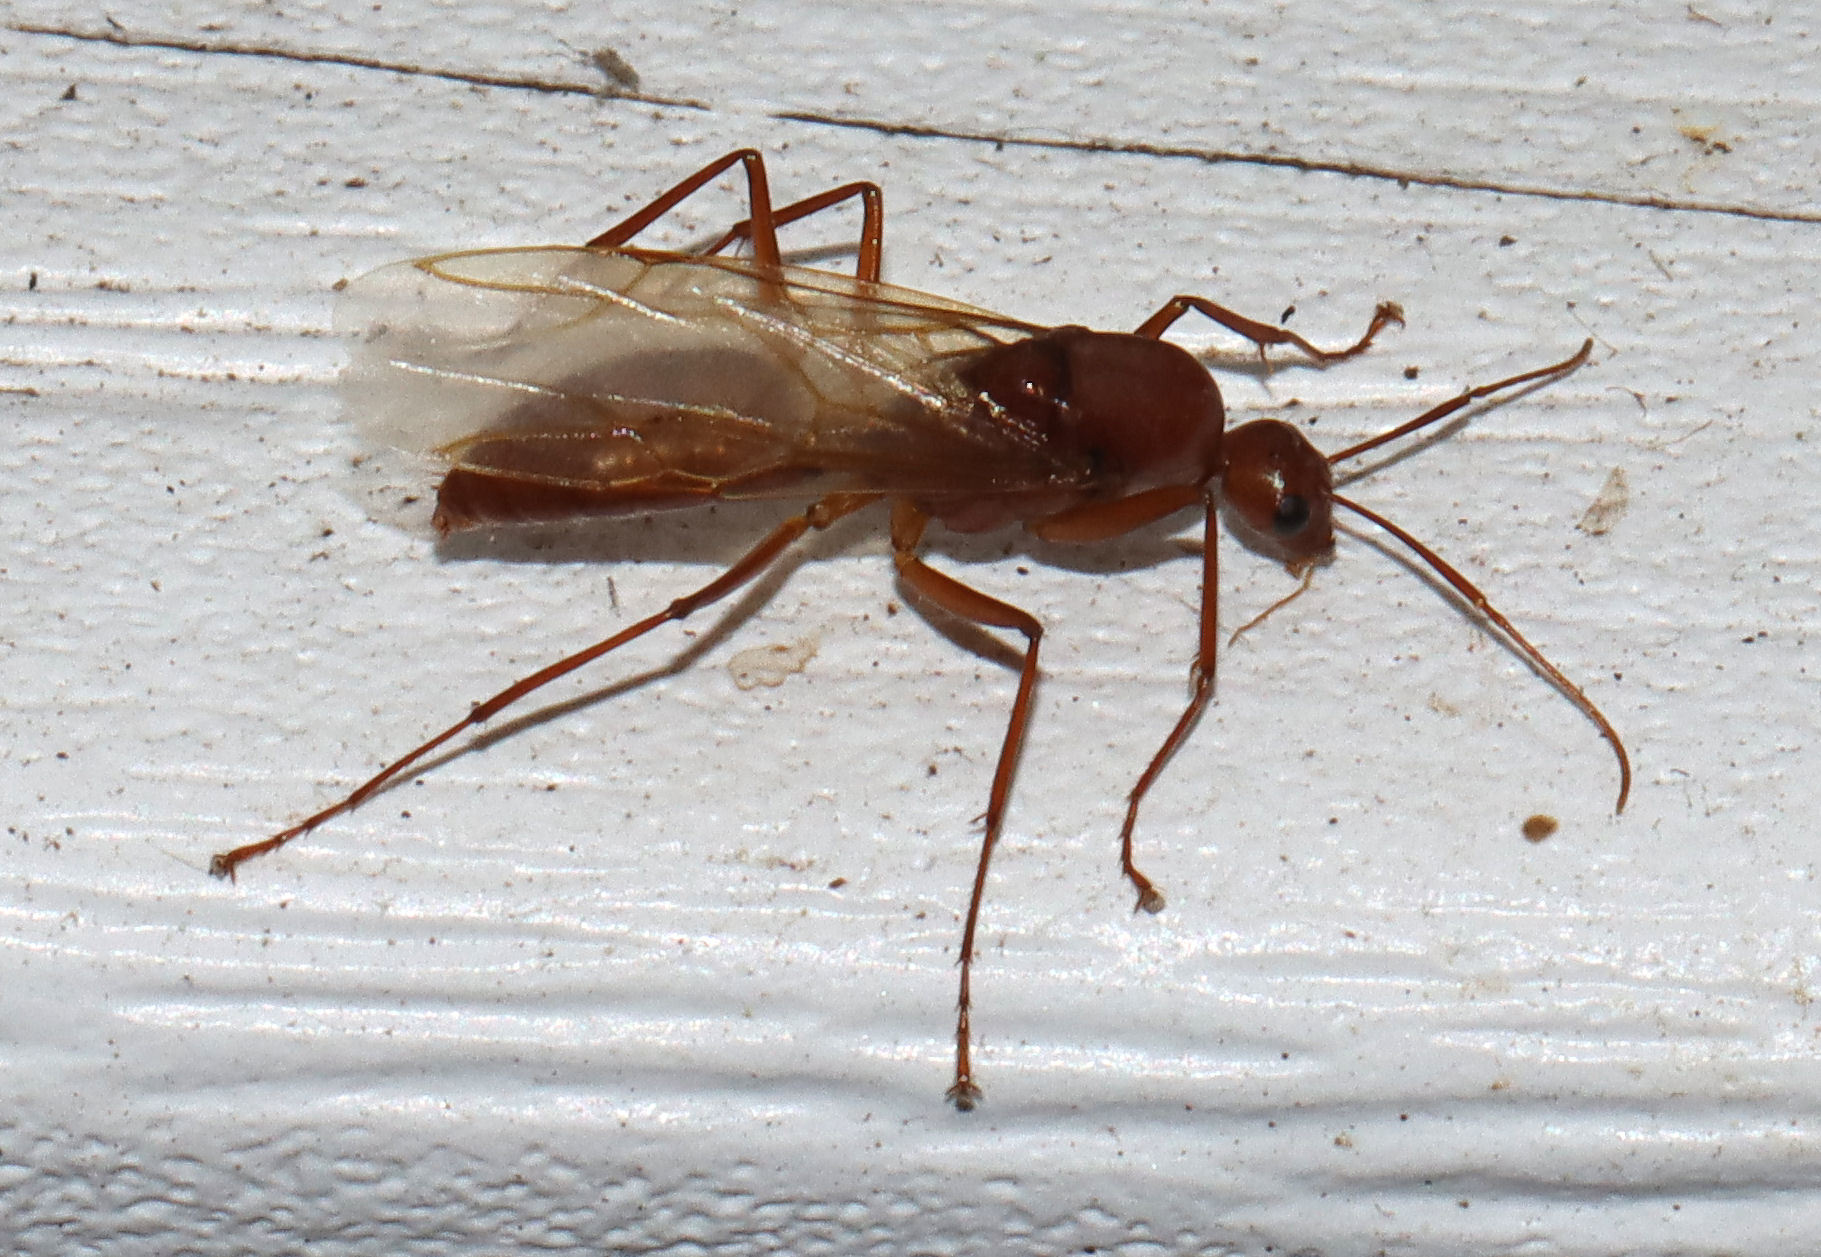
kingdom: Animalia
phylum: Arthropoda
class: Insecta
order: Hymenoptera
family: Formicidae
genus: Camponotus
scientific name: Camponotus castaneus
